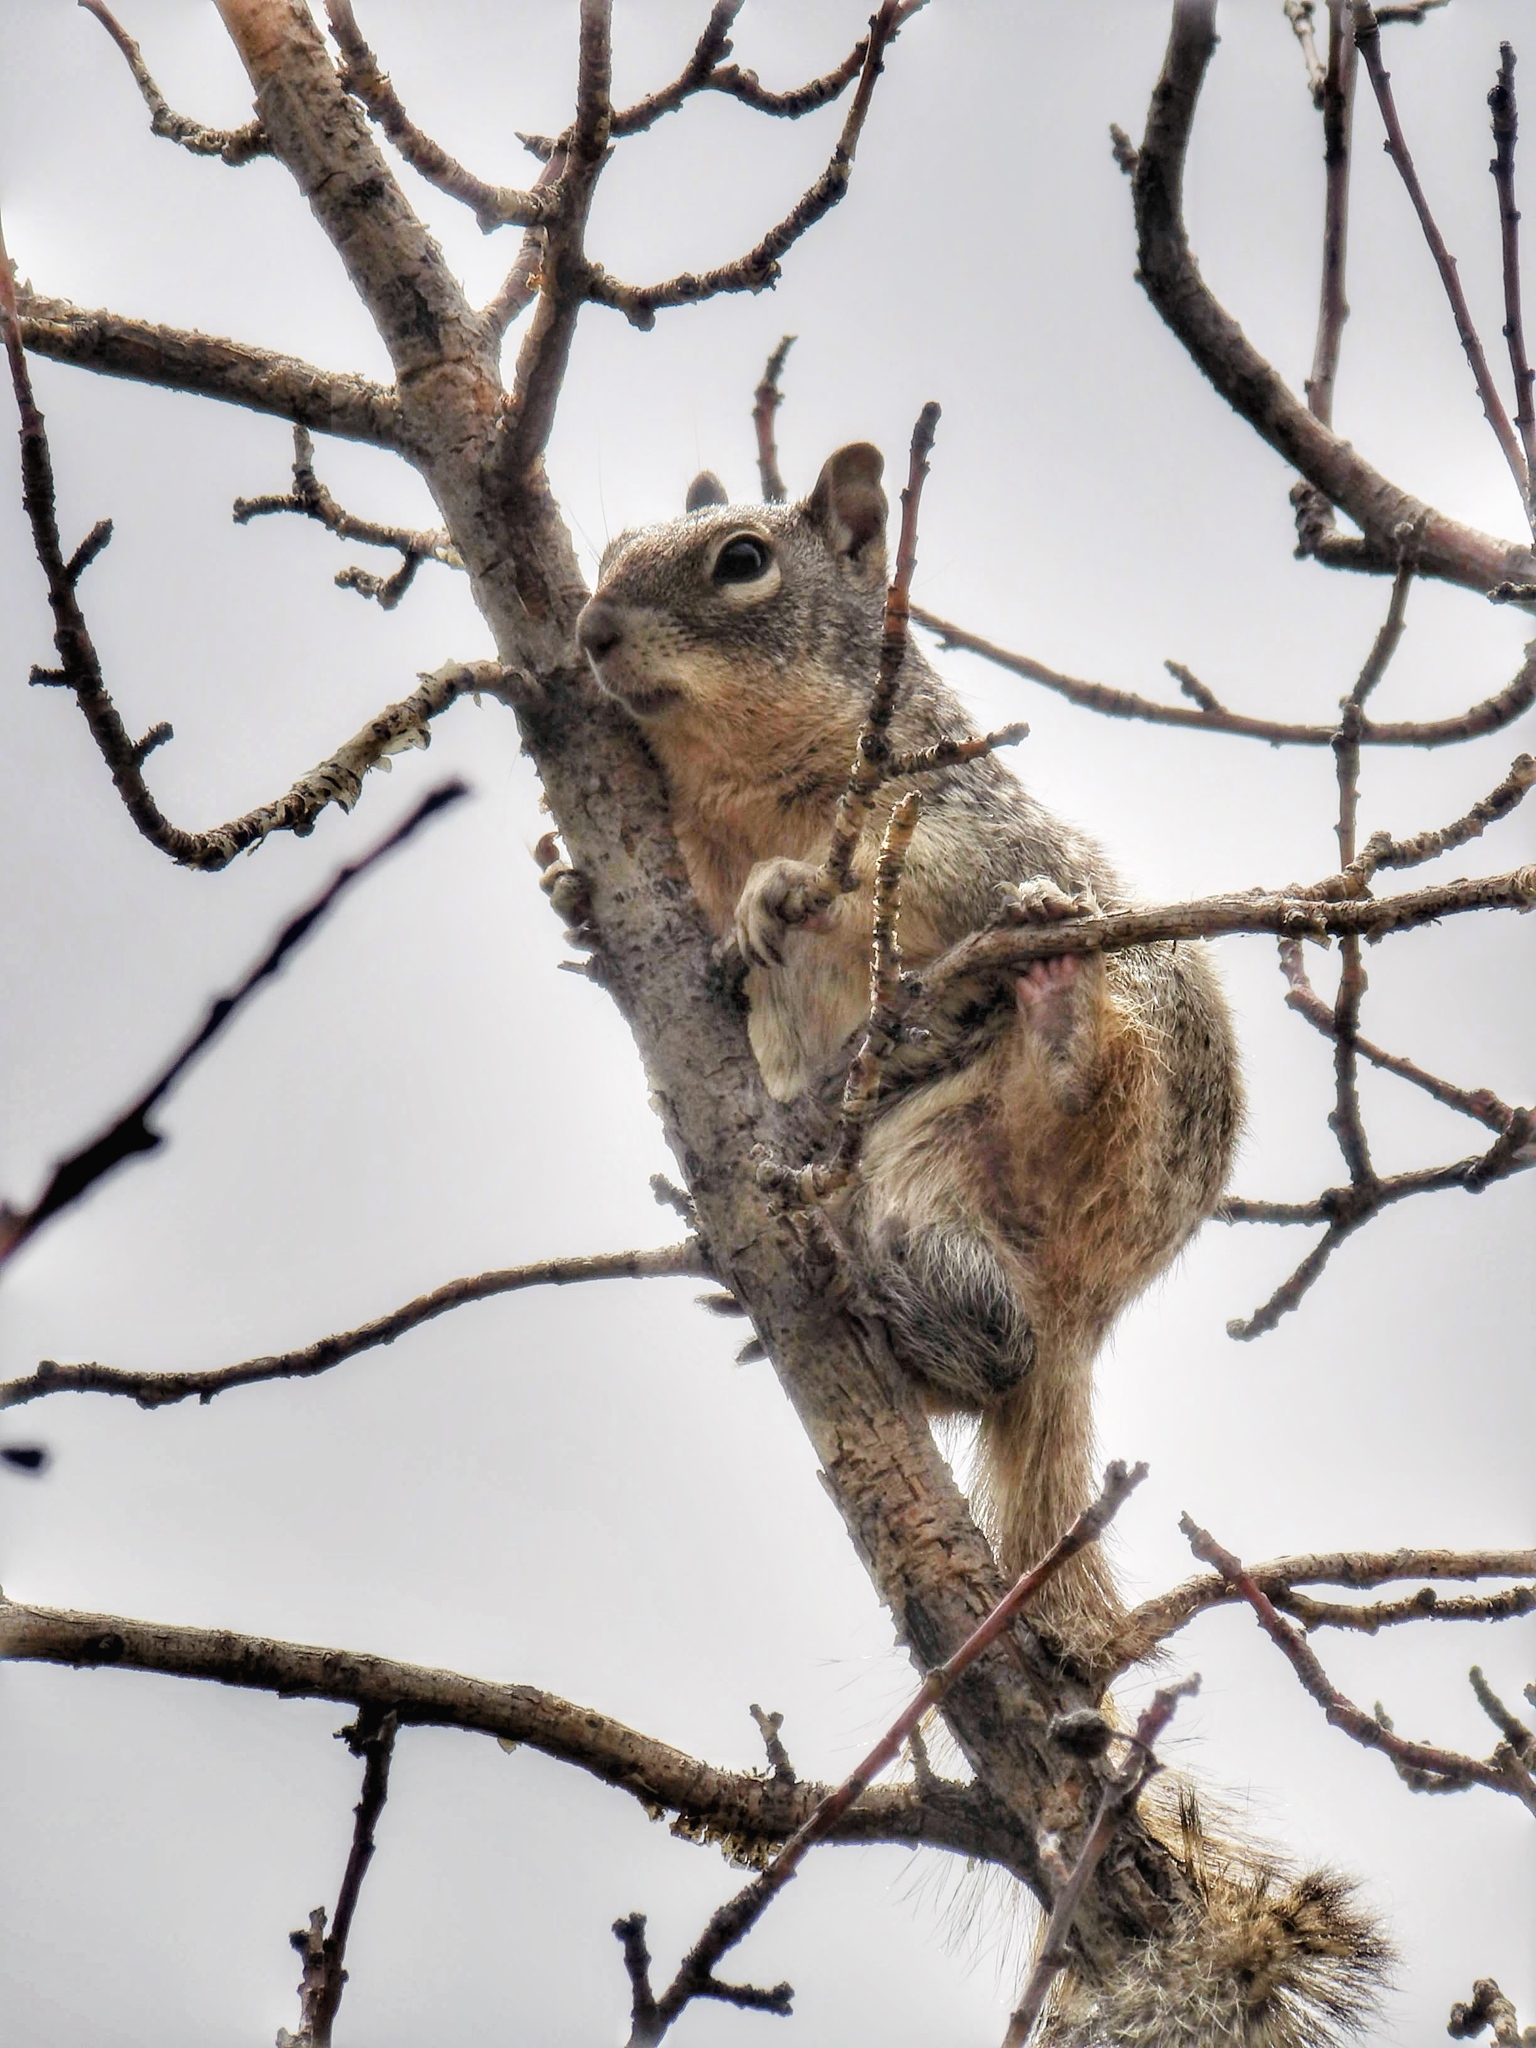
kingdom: Animalia
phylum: Chordata
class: Mammalia
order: Rodentia
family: Sciuridae
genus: Otospermophilus
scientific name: Otospermophilus variegatus
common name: Rock squirrel
